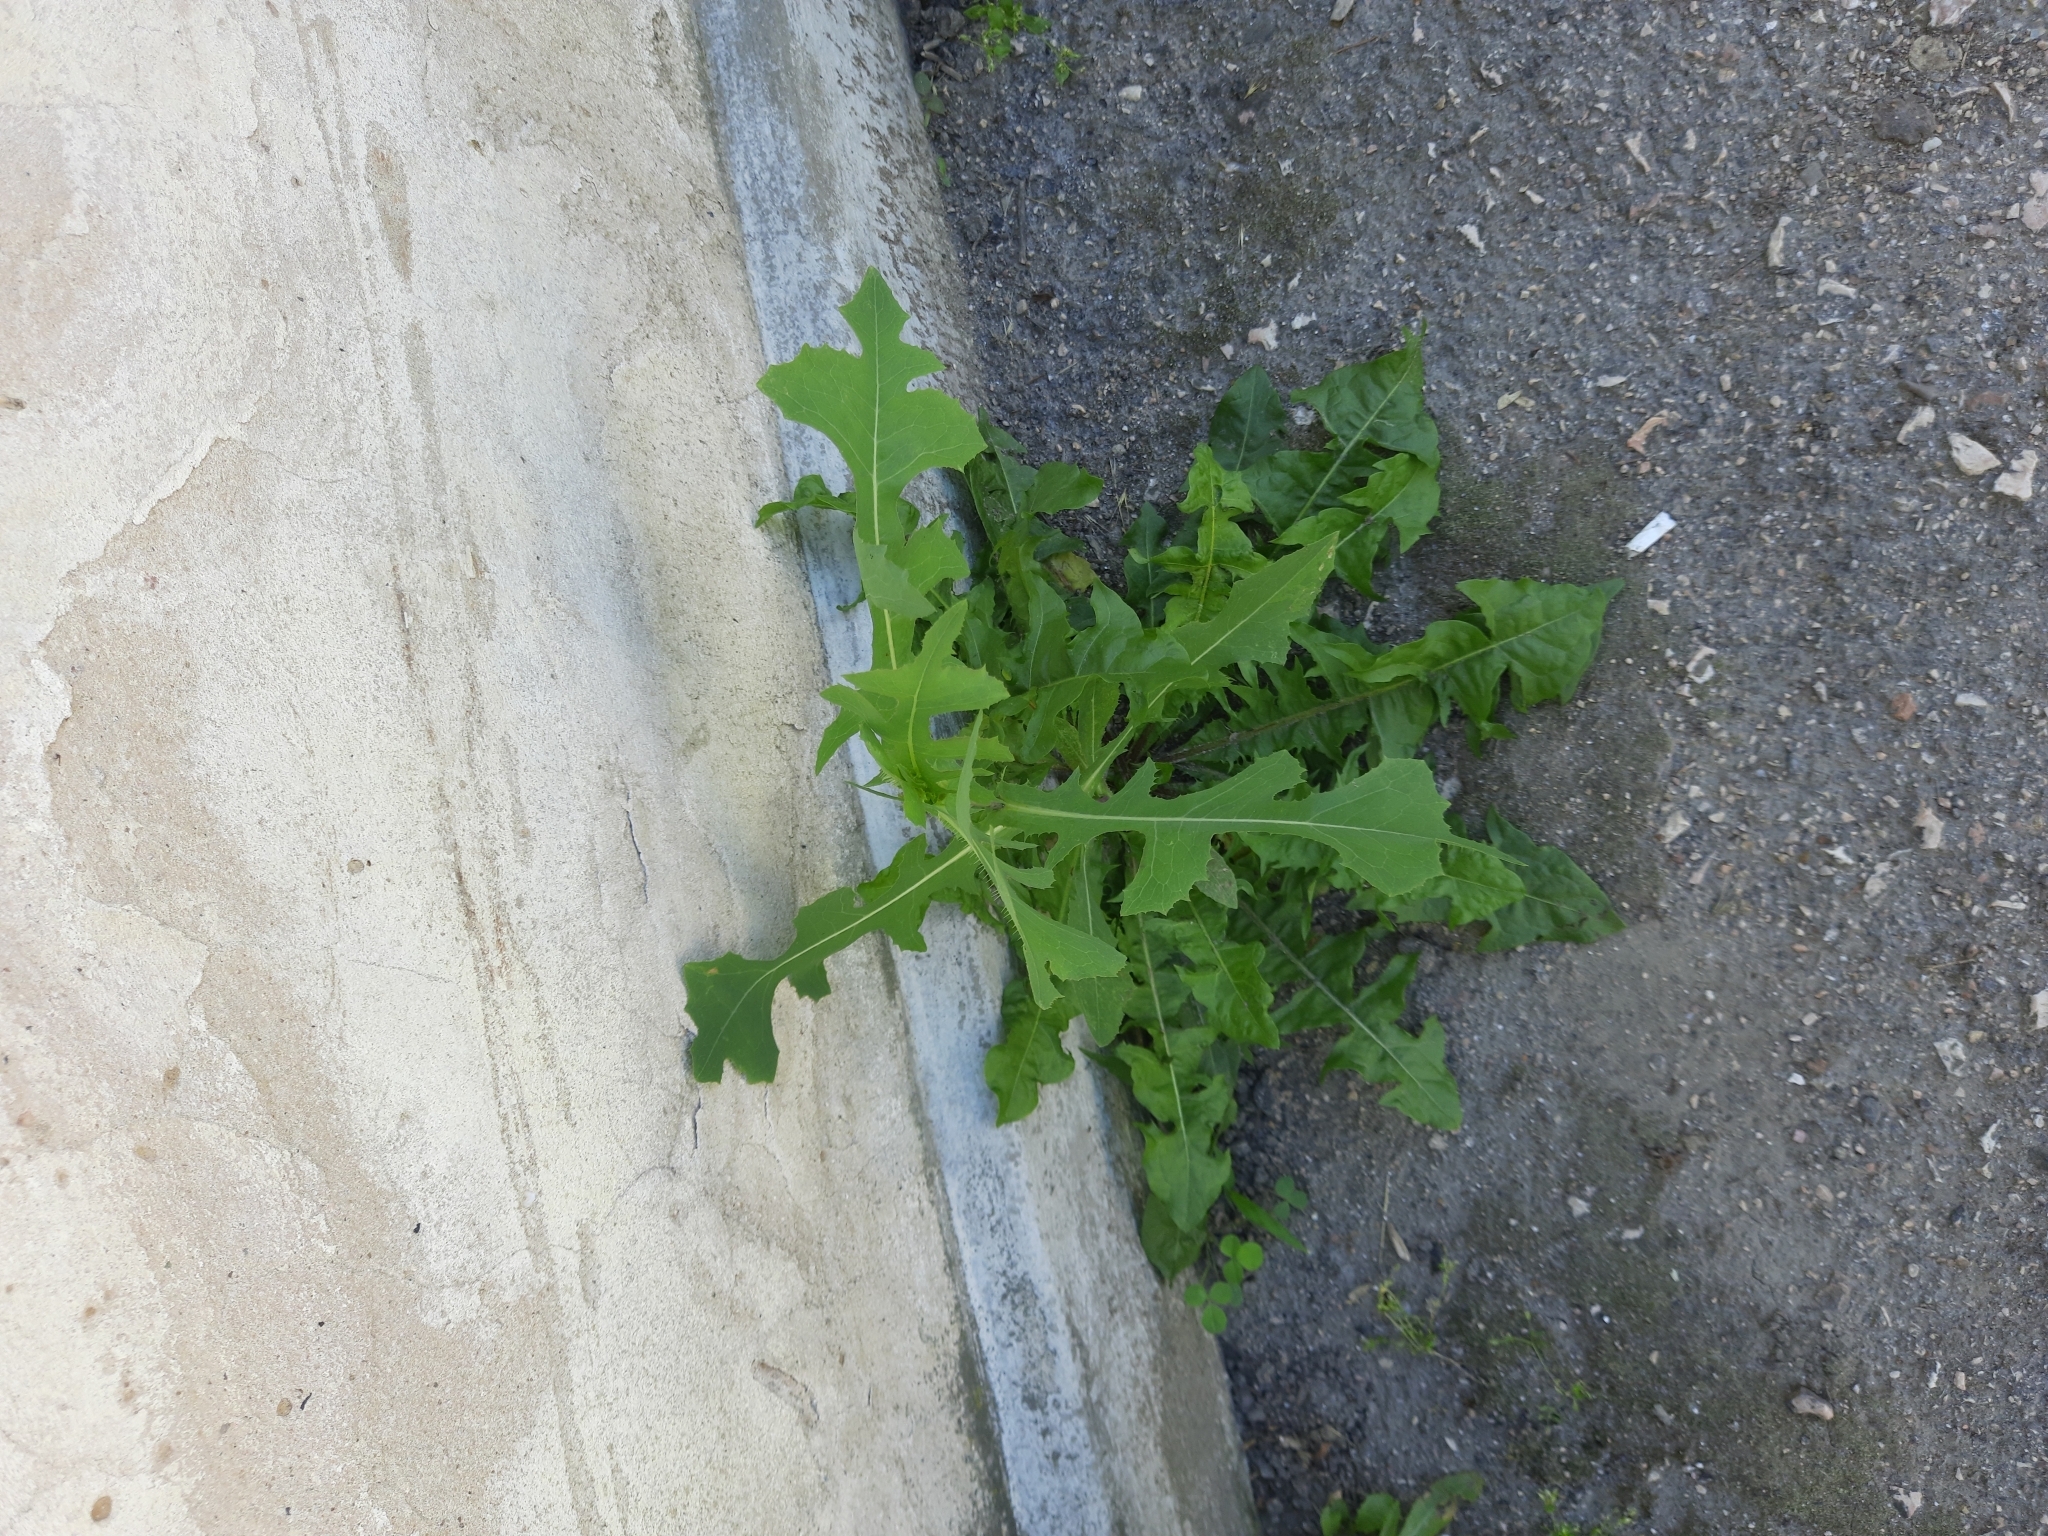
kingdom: Plantae
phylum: Tracheophyta
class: Magnoliopsida
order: Asterales
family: Asteraceae
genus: Lactuca
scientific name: Lactuca serriola
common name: Prickly lettuce
